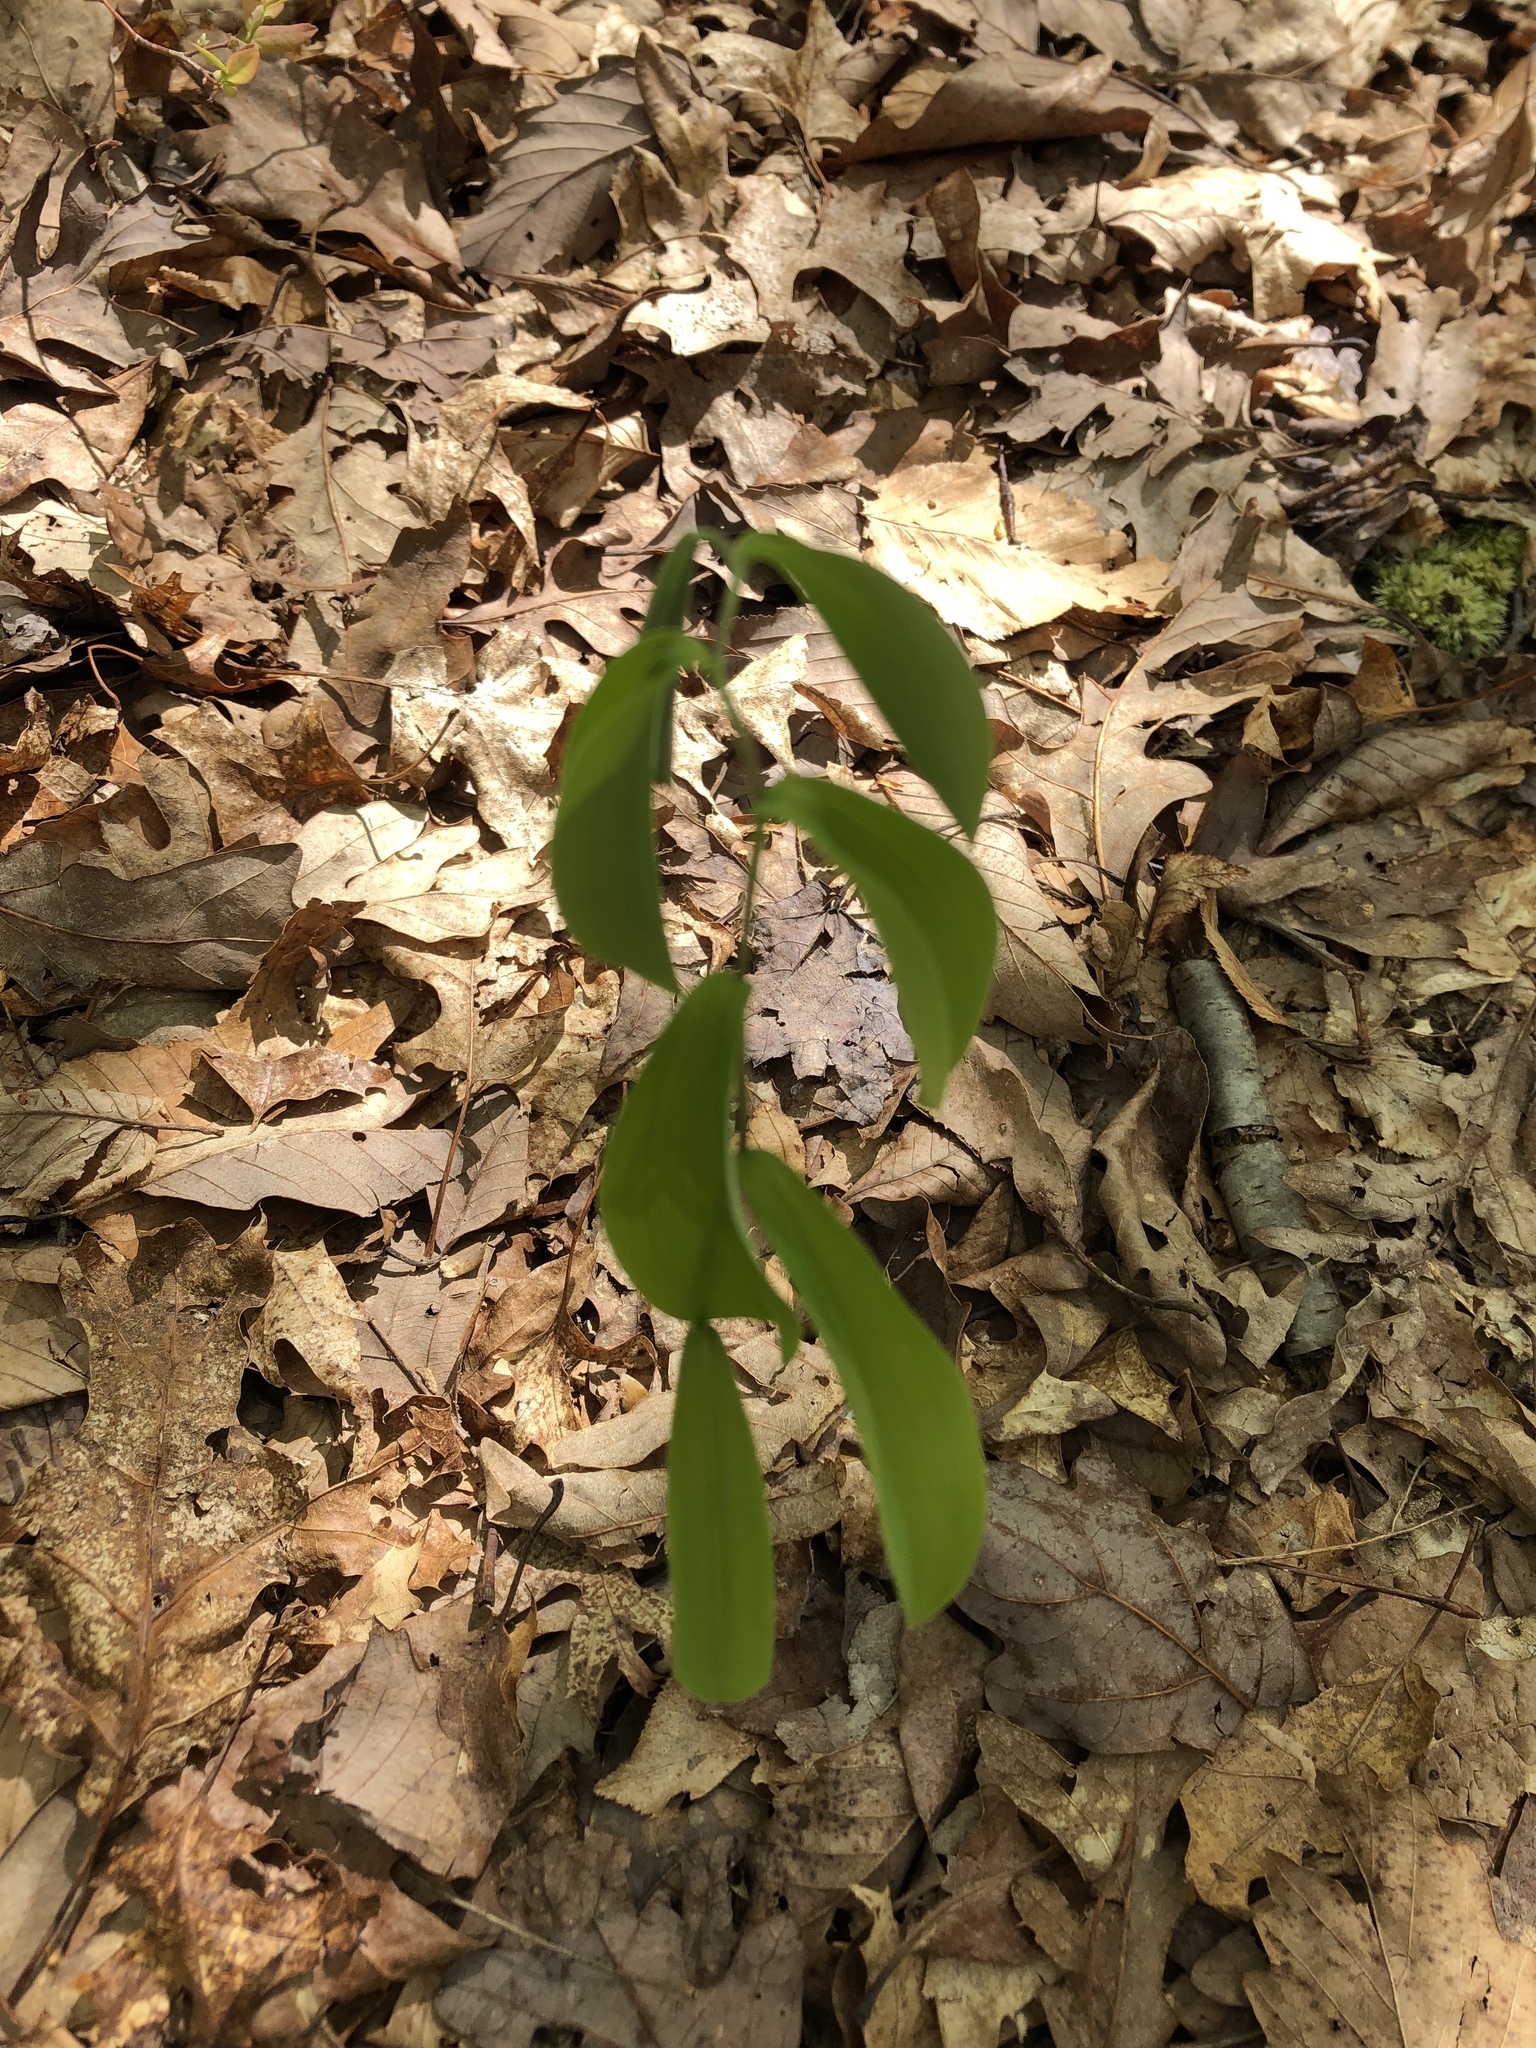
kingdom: Plantae
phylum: Tracheophyta
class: Liliopsida
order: Liliales
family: Colchicaceae
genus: Uvularia
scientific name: Uvularia sessilifolia
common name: Straw-lily
